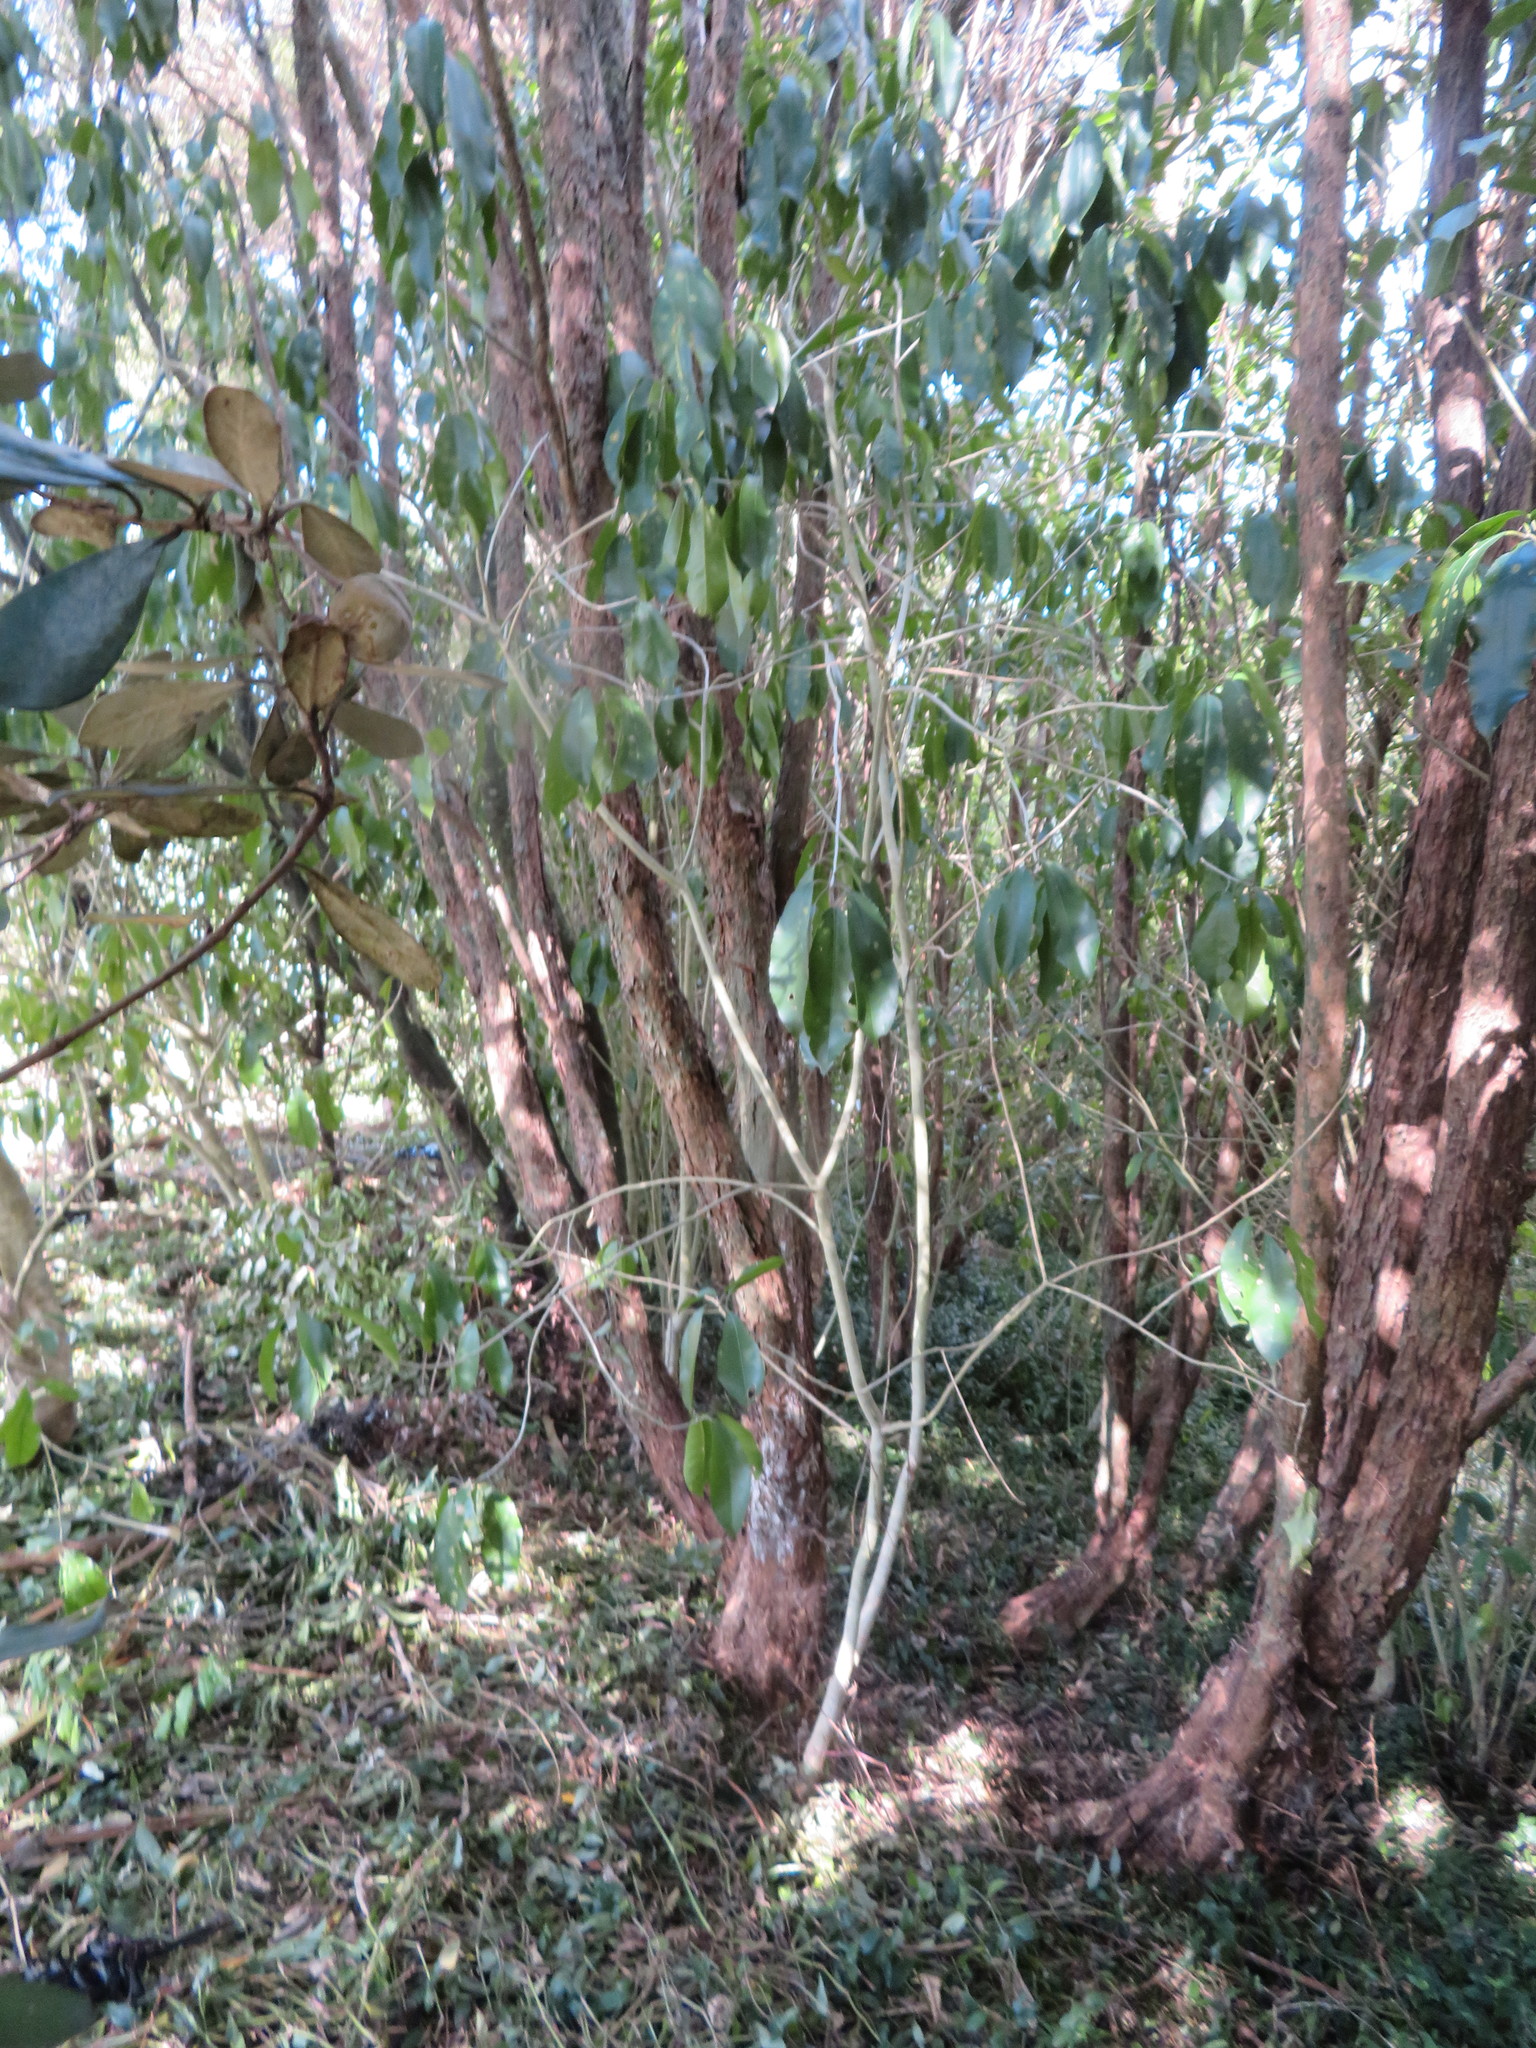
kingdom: Plantae
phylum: Tracheophyta
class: Magnoliopsida
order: Malpighiales
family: Violaceae
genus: Melicytus
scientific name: Melicytus ramiflorus
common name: Mahoe
